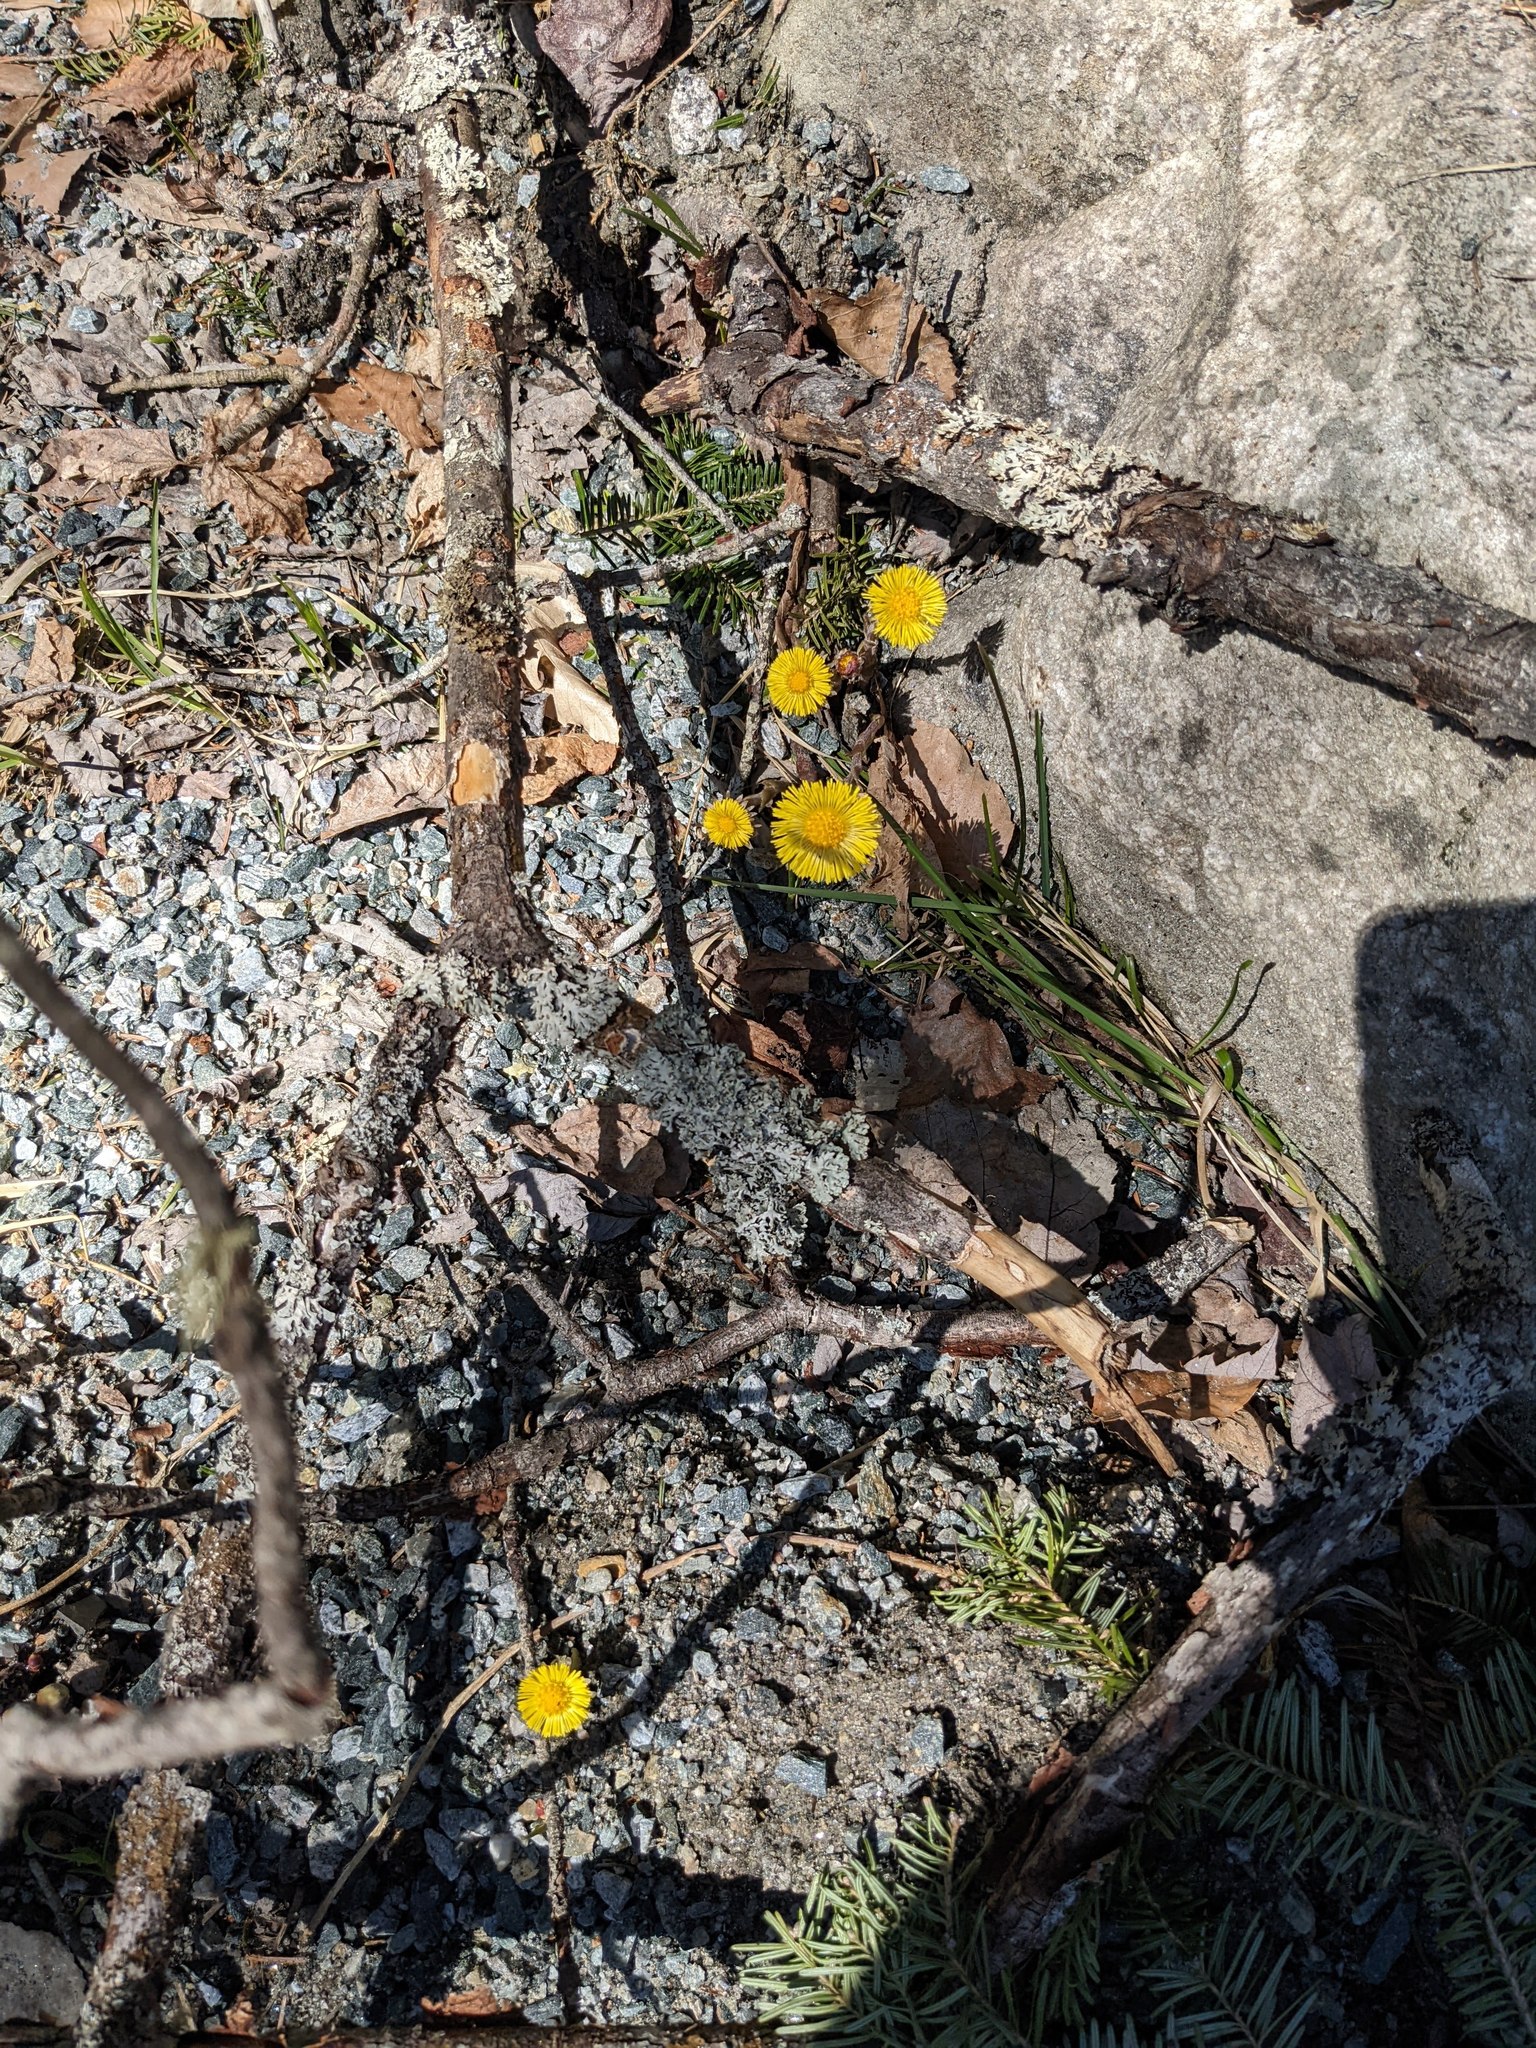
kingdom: Plantae
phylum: Tracheophyta
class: Magnoliopsida
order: Asterales
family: Asteraceae
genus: Tussilago
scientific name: Tussilago farfara
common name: Coltsfoot
